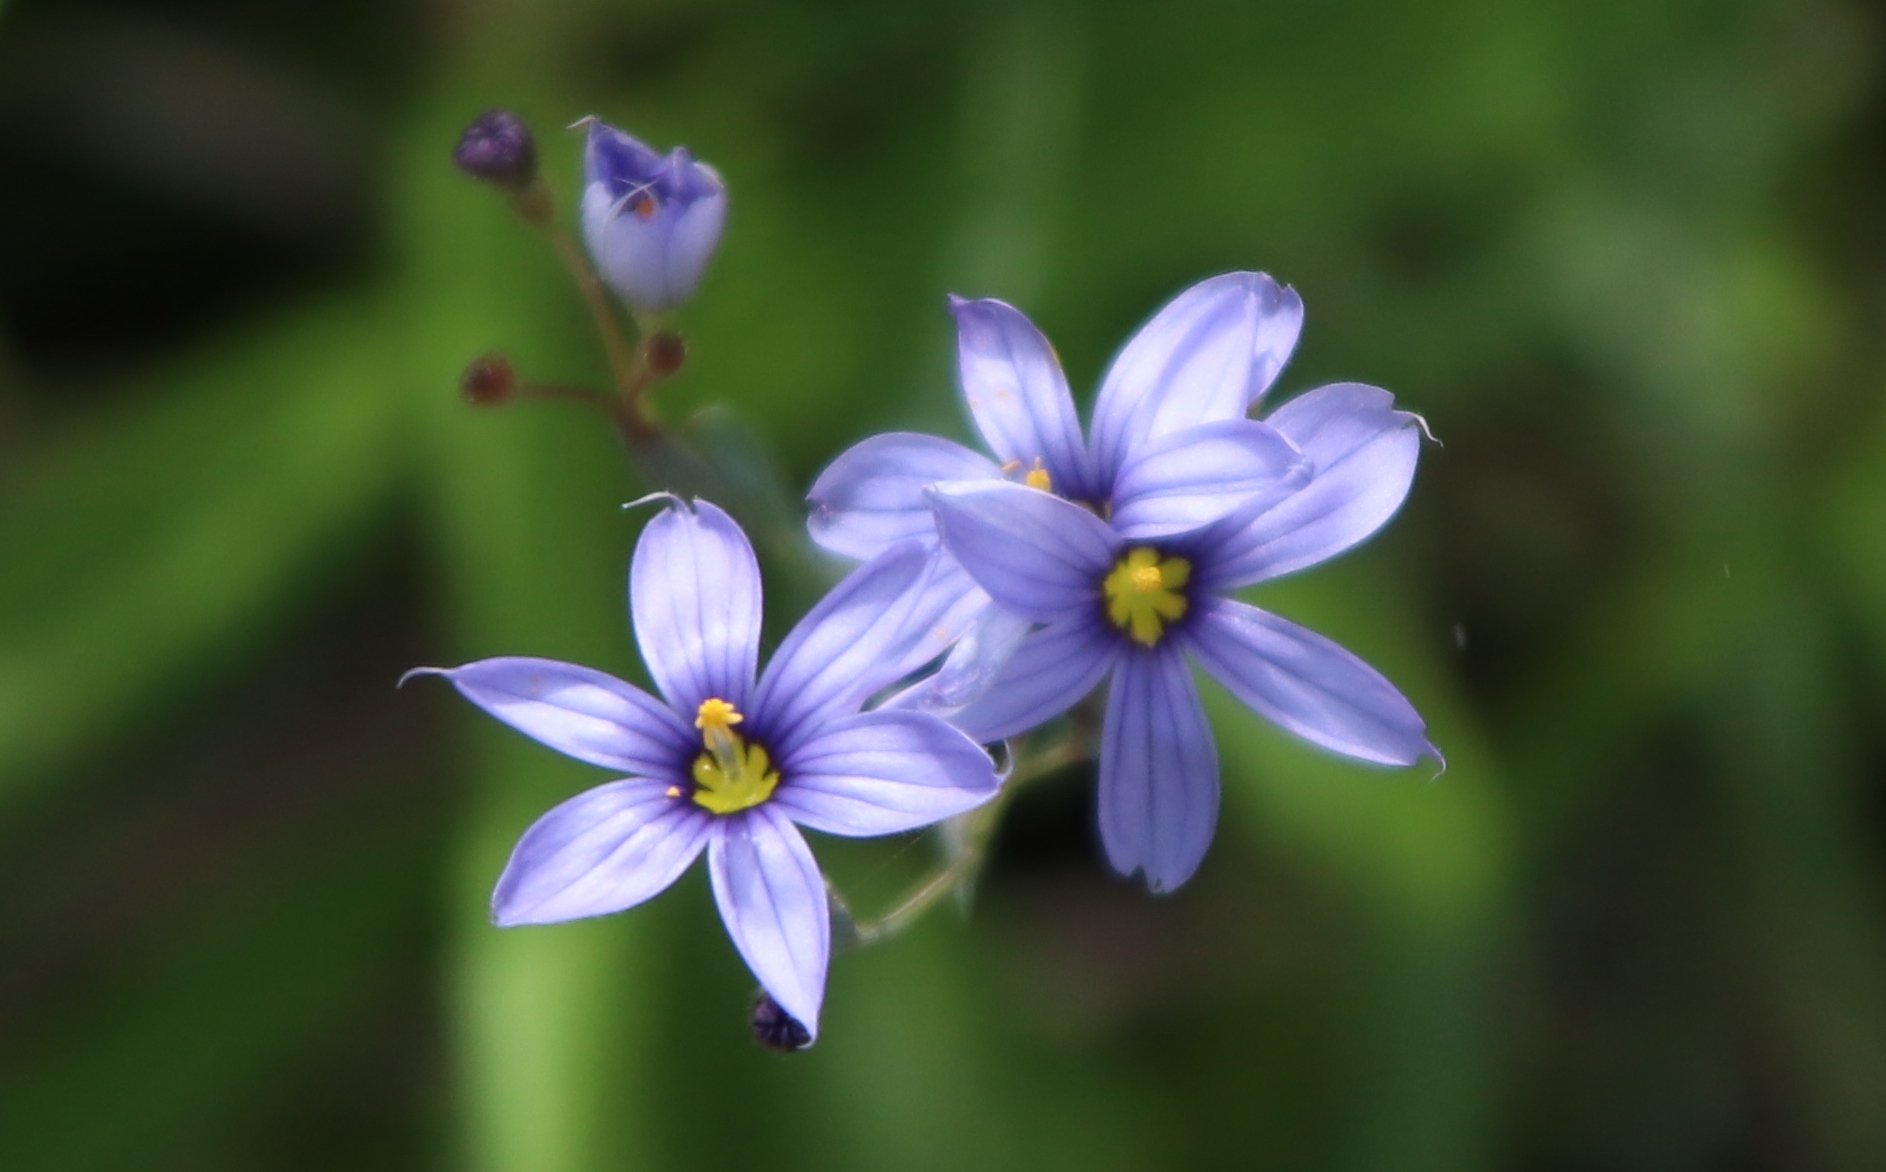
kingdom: Plantae
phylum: Tracheophyta
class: Liliopsida
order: Asparagales
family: Iridaceae
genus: Sisyrinchium
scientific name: Sisyrinchium angustifolium
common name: Narrow-leaf blue-eyed-grass
